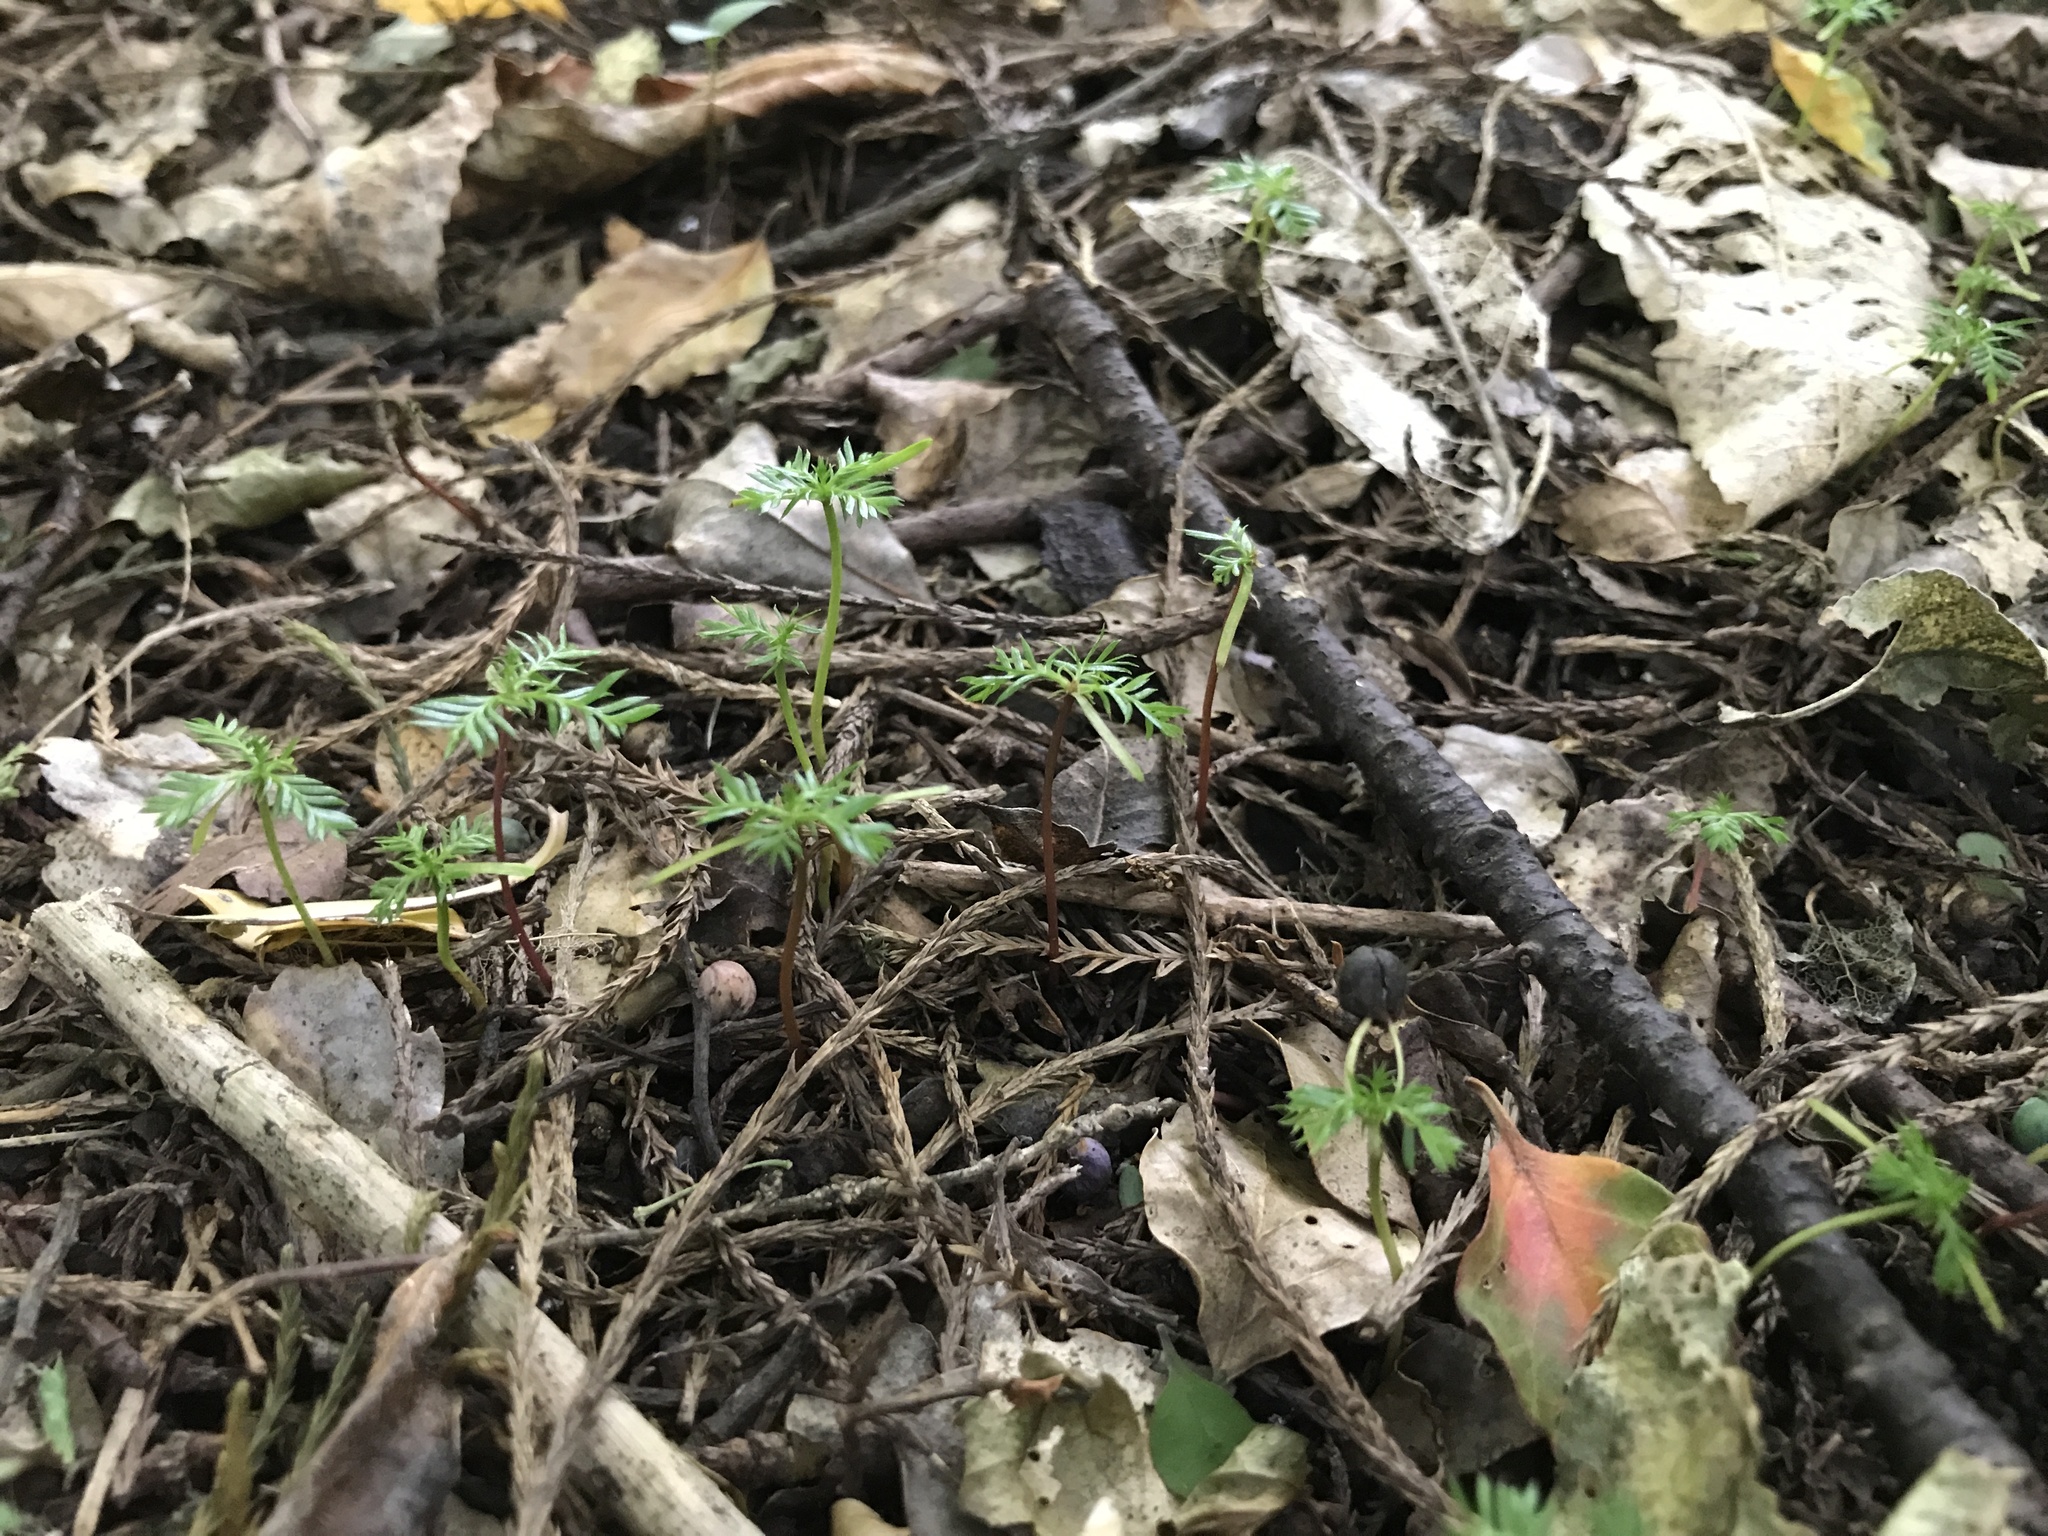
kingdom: Plantae
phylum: Tracheophyta
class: Pinopsida
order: Pinales
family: Podocarpaceae
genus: Dacrycarpus
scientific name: Dacrycarpus dacrydioides
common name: White pine
